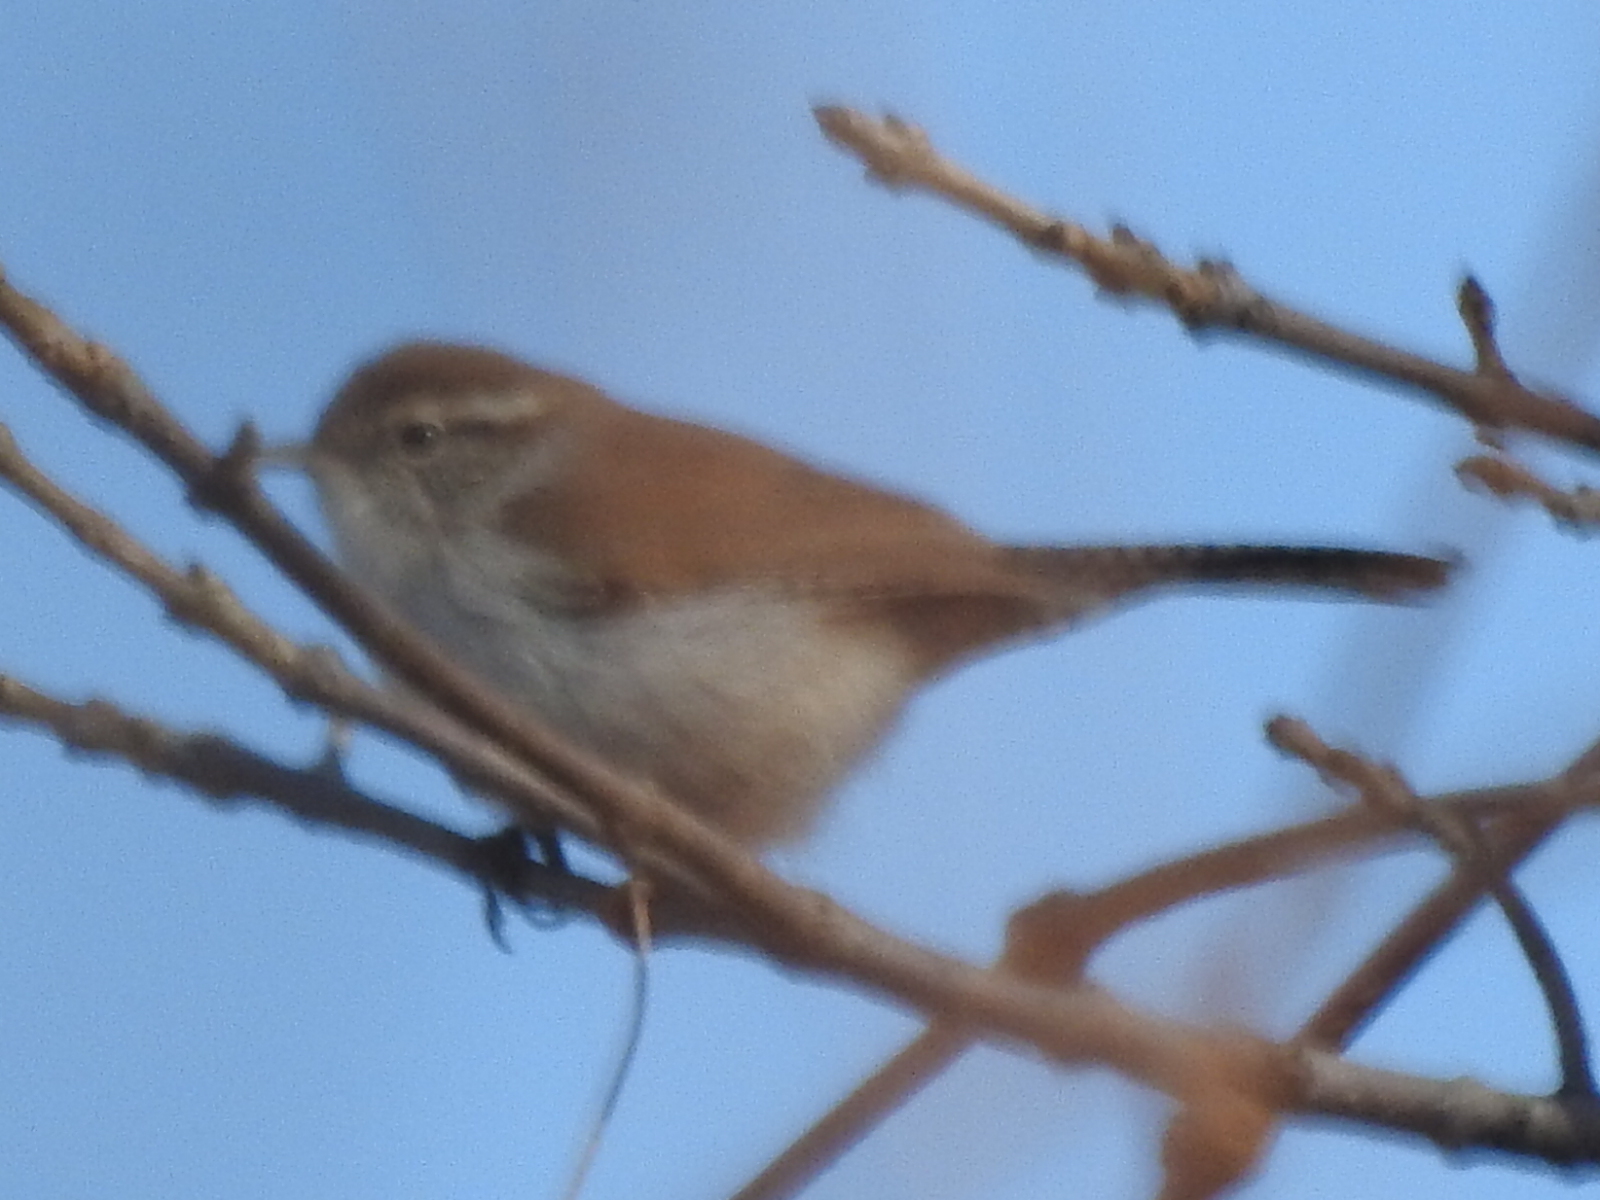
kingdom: Animalia
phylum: Chordata
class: Aves
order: Passeriformes
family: Troglodytidae
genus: Thryomanes
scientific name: Thryomanes bewickii
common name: Bewick's wren
